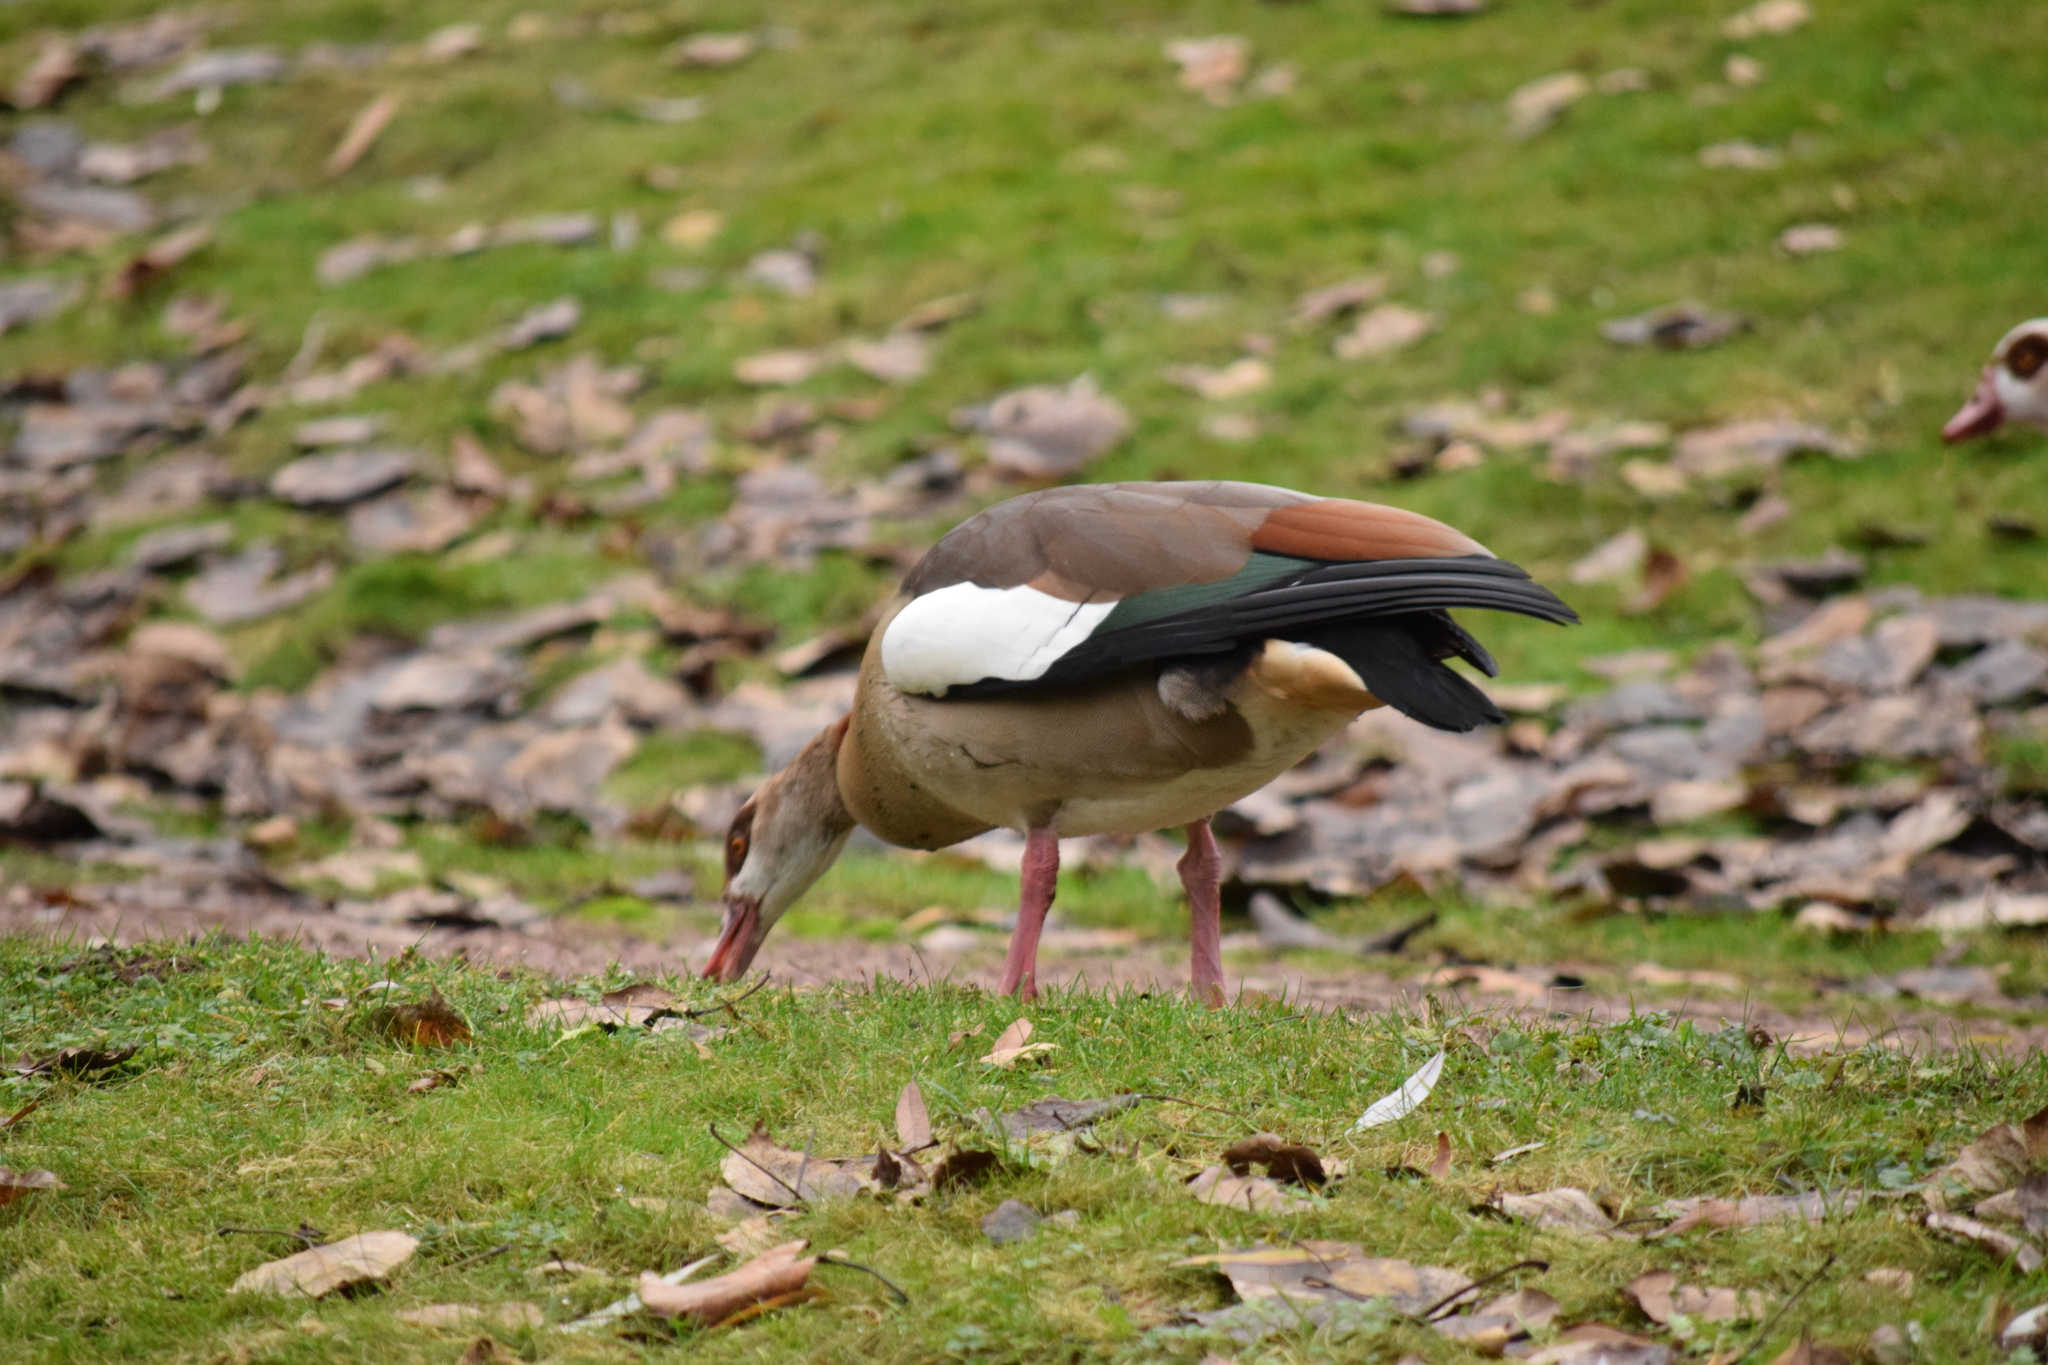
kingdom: Animalia
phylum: Chordata
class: Aves
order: Anseriformes
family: Anatidae
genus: Alopochen
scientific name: Alopochen aegyptiaca
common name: Egyptian goose
